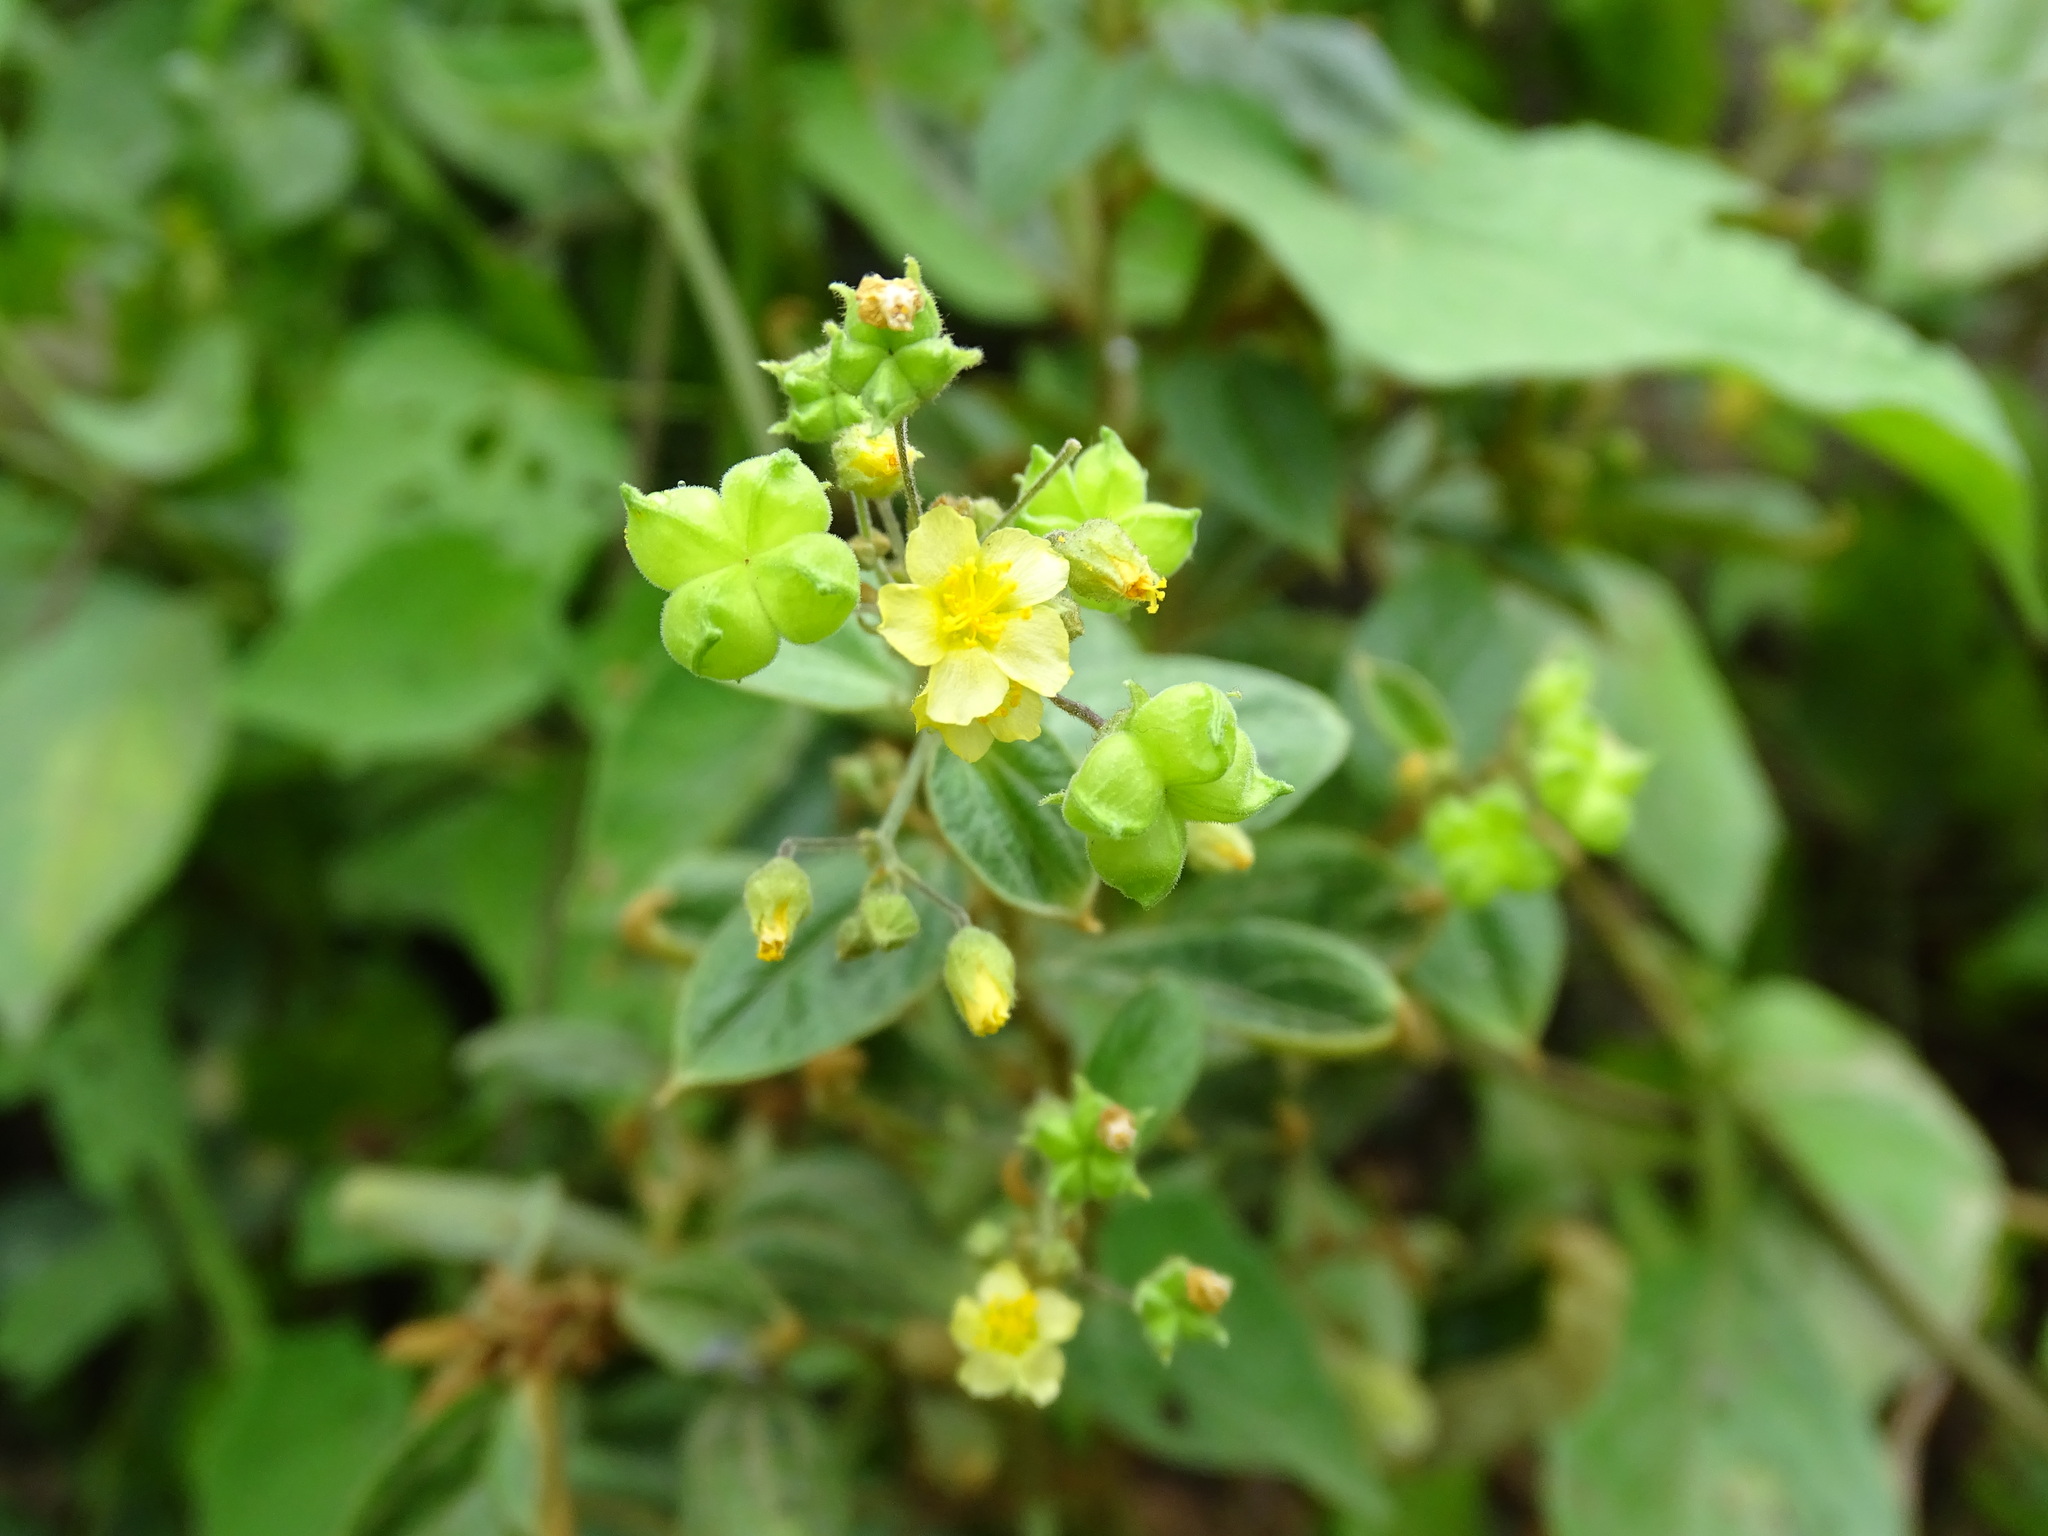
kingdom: Plantae
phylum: Tracheophyta
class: Magnoliopsida
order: Malvales
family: Malvaceae
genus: Wissadula
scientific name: Wissadula excelsior
